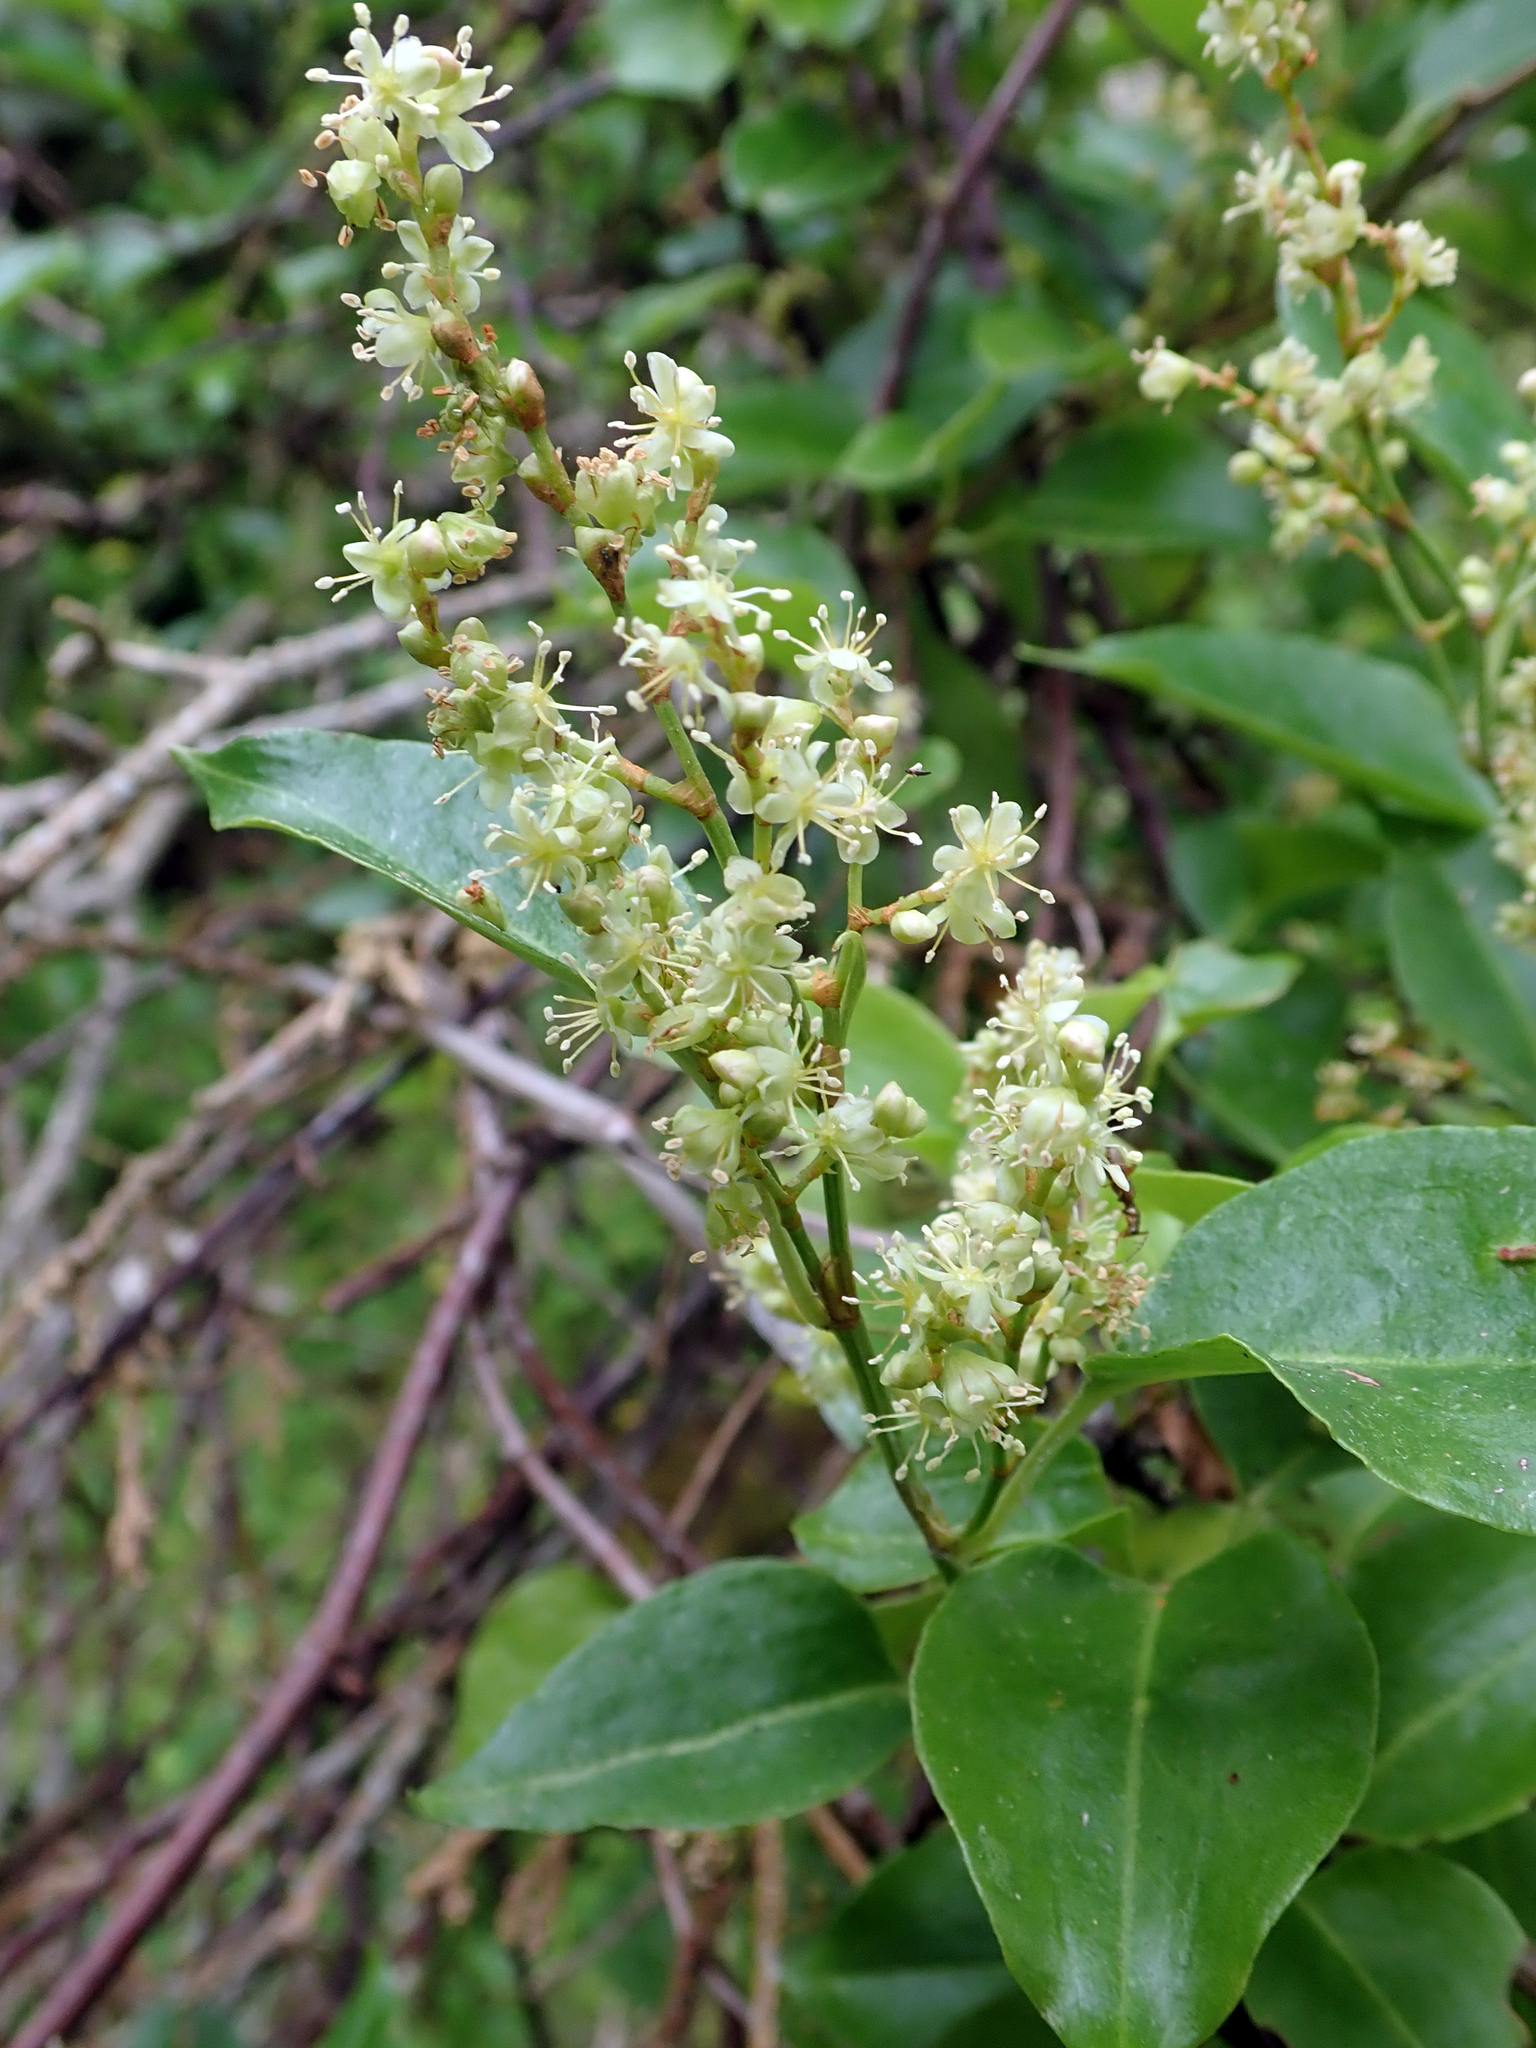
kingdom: Plantae
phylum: Tracheophyta
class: Magnoliopsida
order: Caryophyllales
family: Polygonaceae
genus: Muehlenbeckia
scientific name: Muehlenbeckia australis
